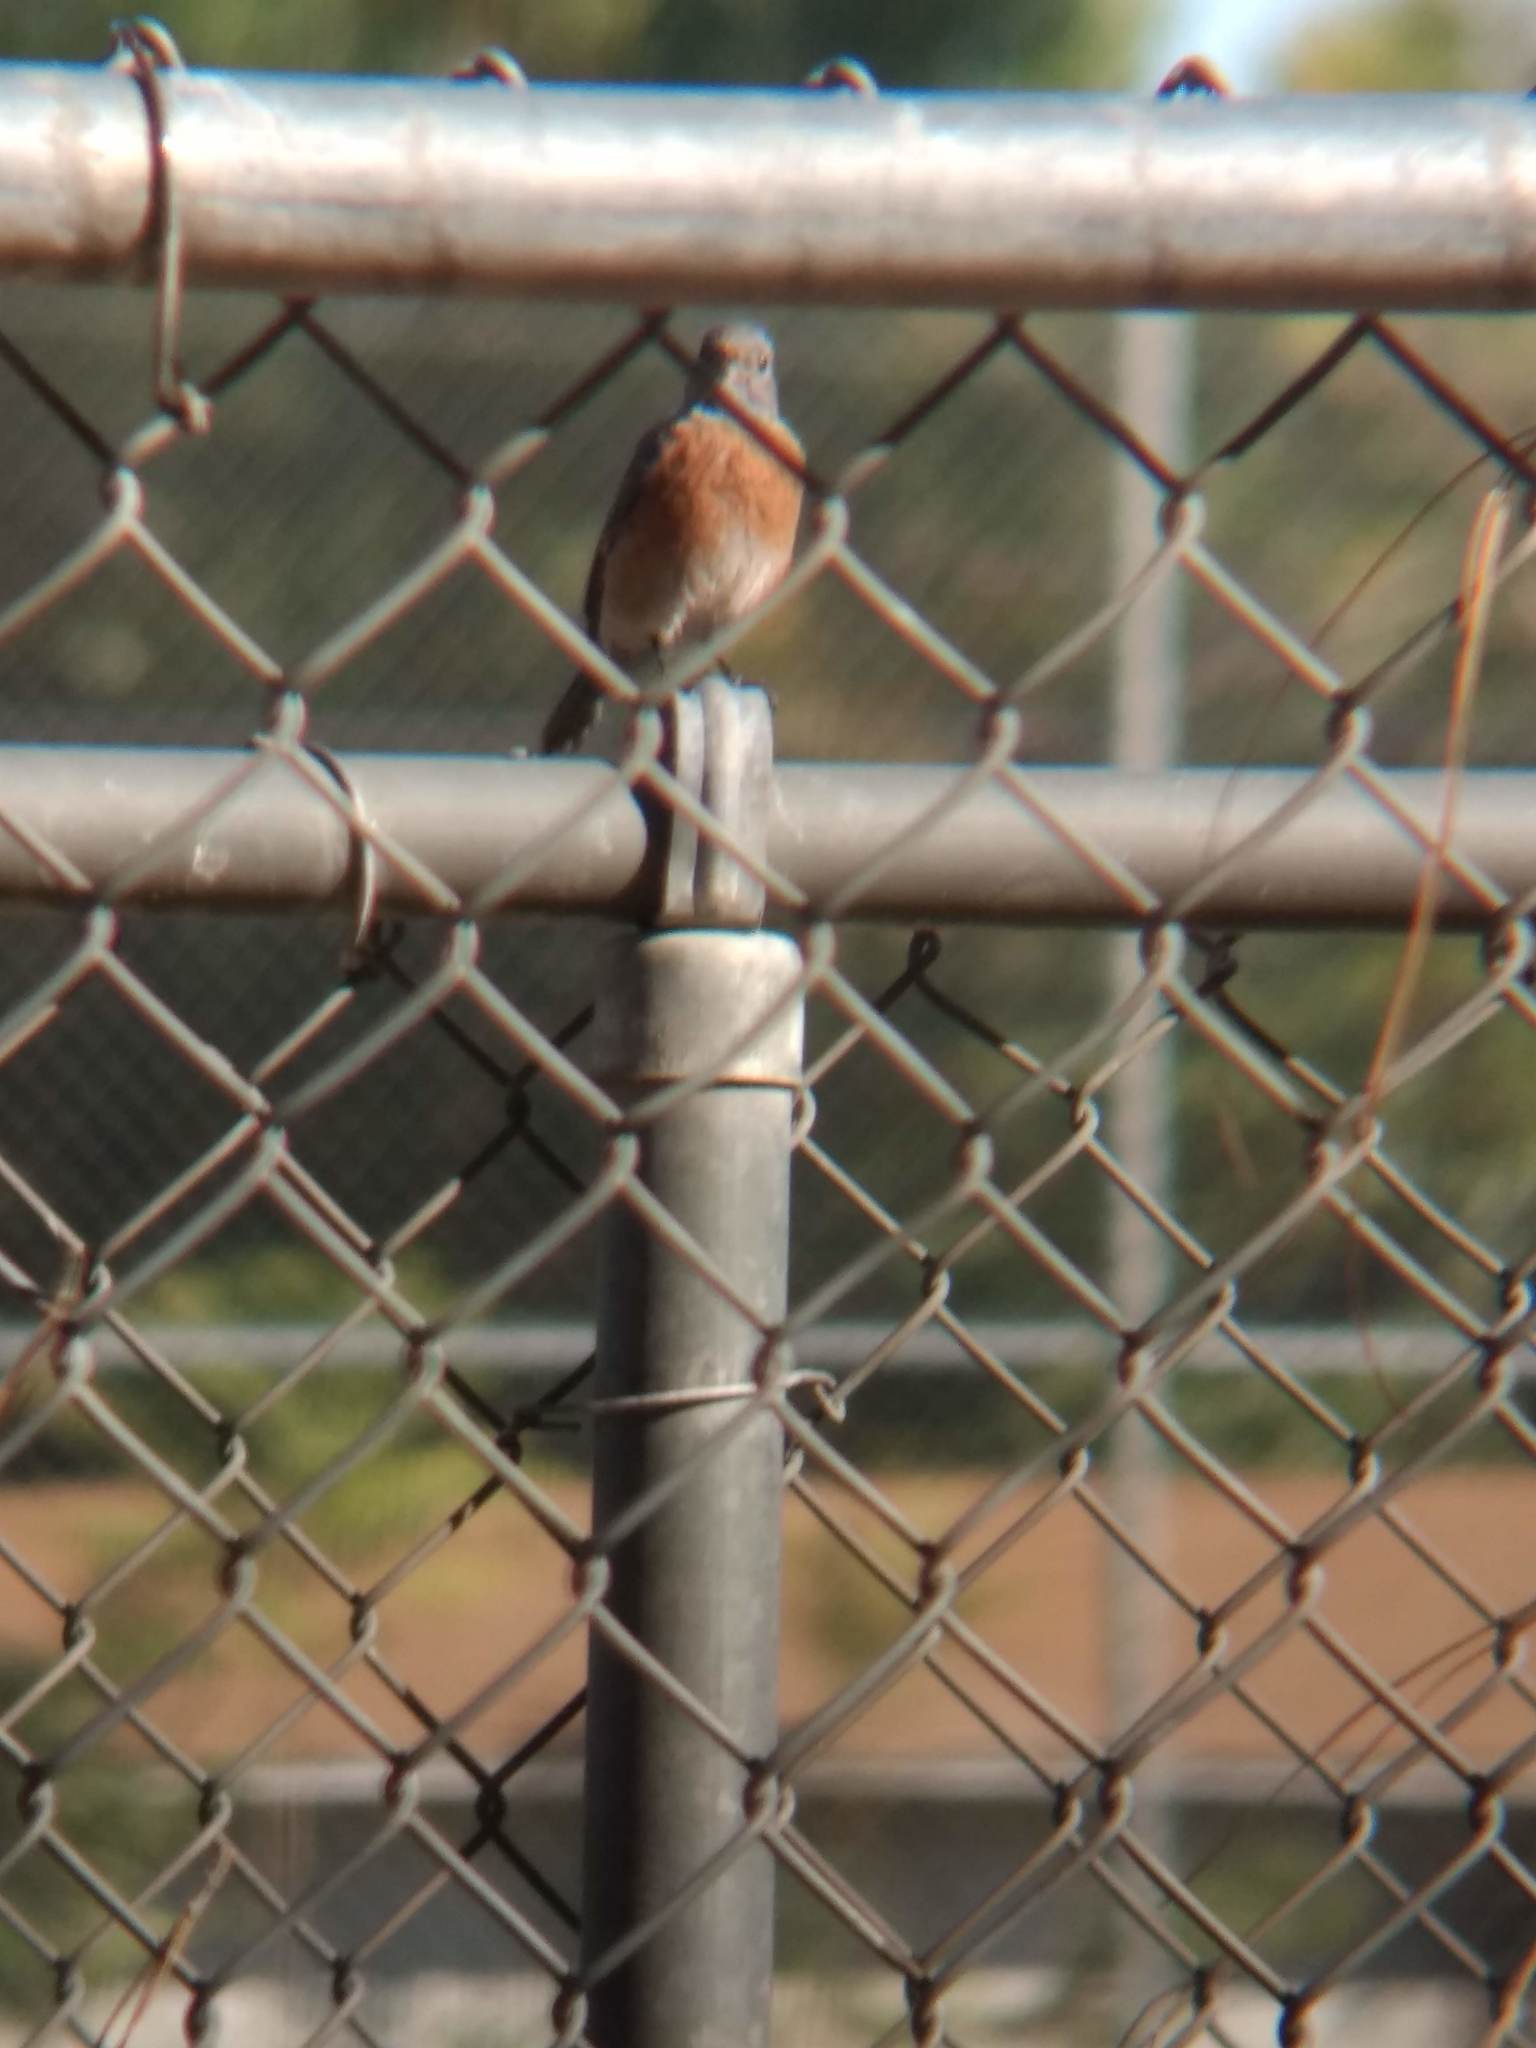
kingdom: Animalia
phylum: Chordata
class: Aves
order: Passeriformes
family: Turdidae
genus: Sialia
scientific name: Sialia mexicana
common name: Western bluebird
